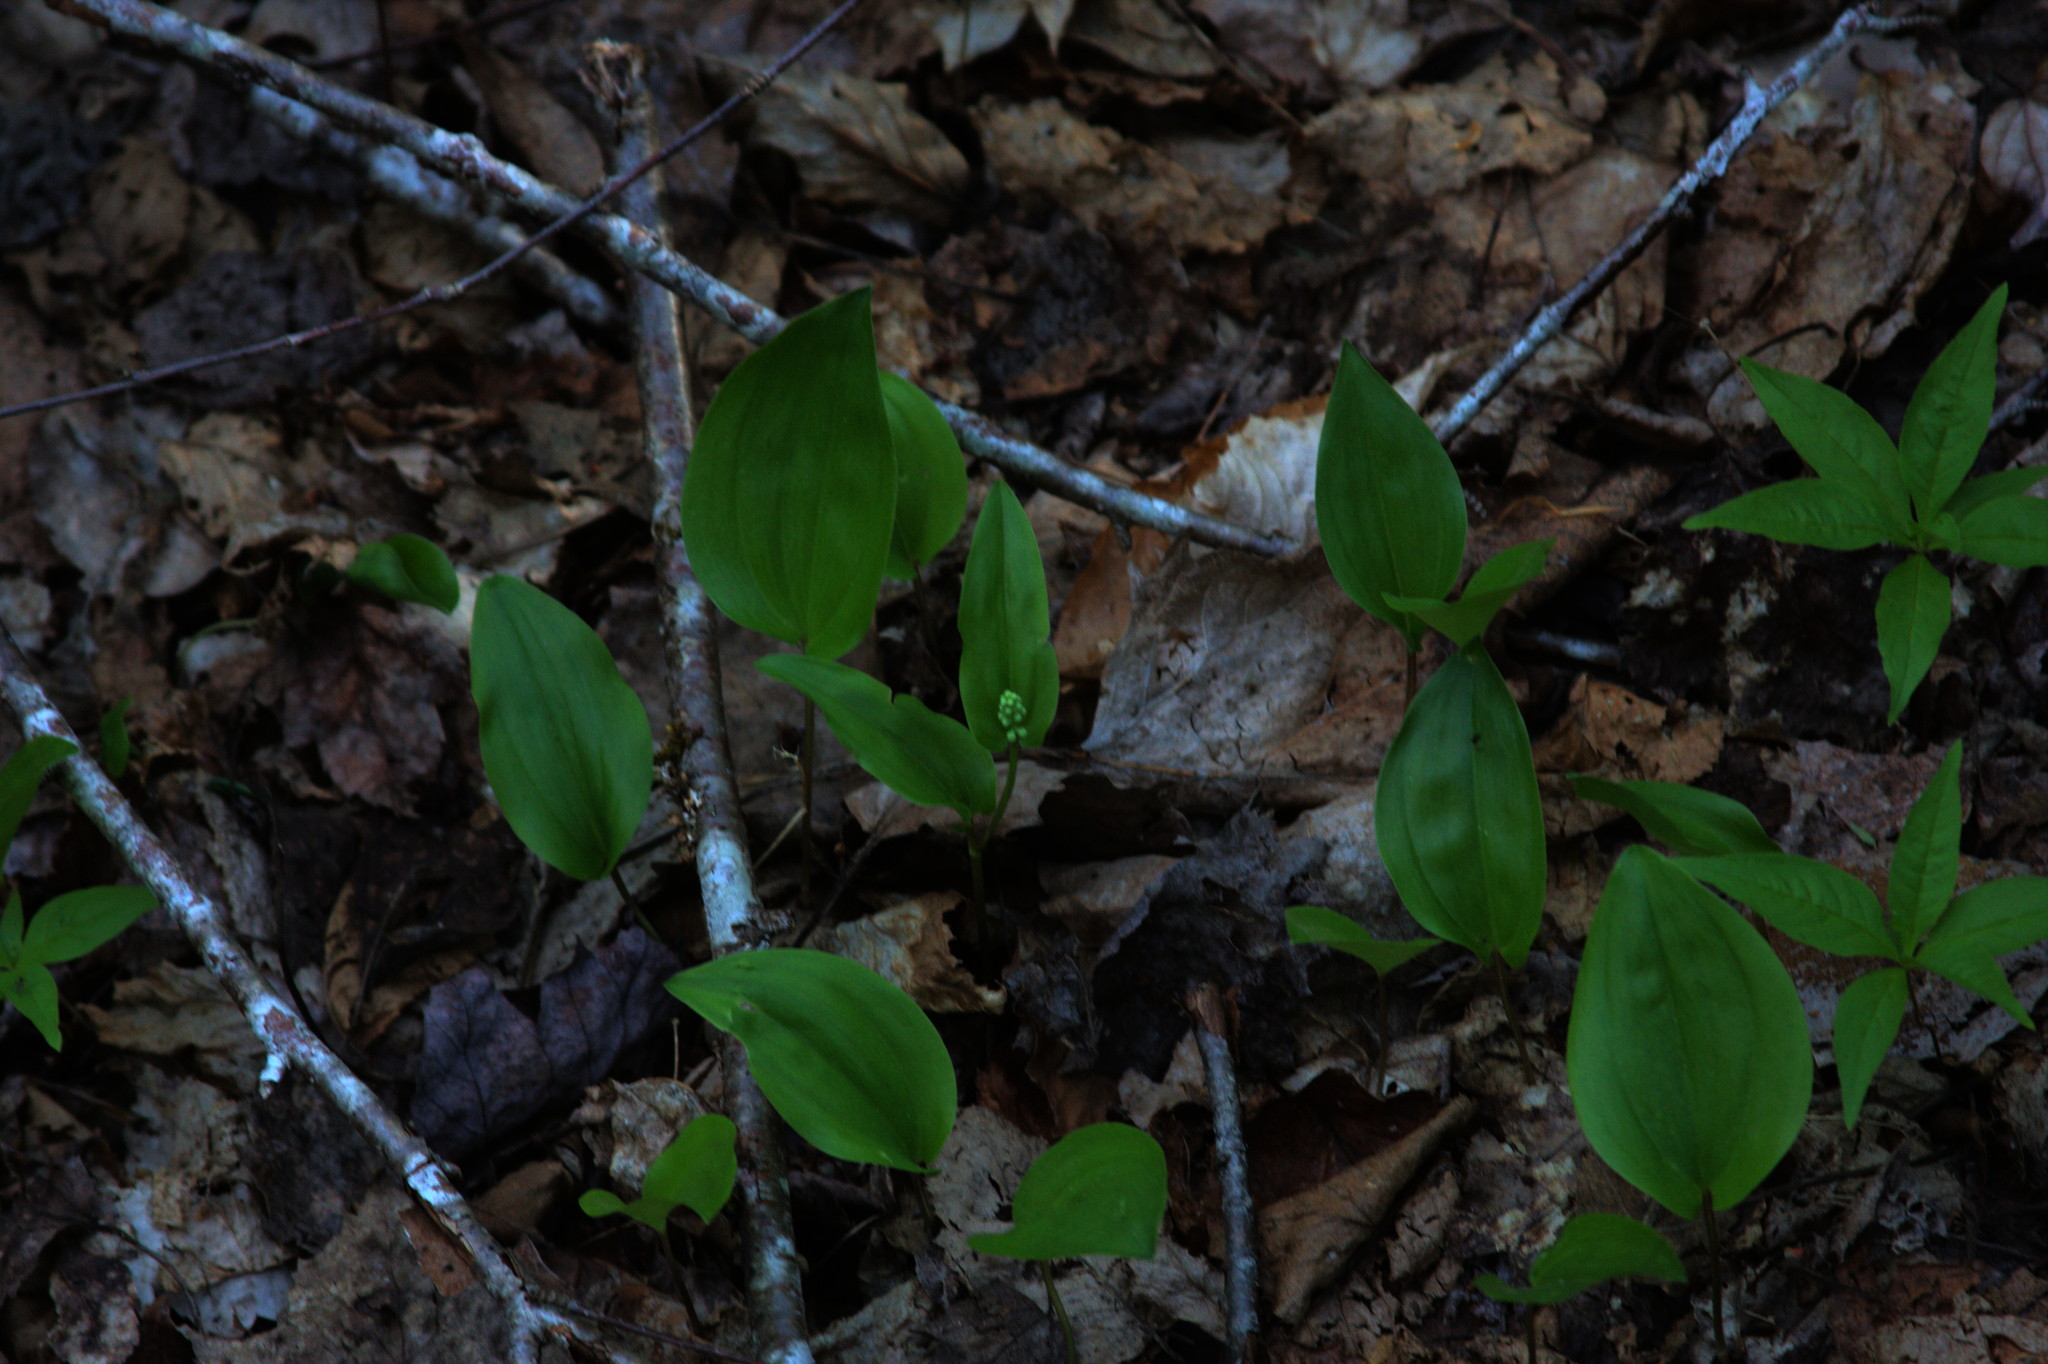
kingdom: Plantae
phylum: Tracheophyta
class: Liliopsida
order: Asparagales
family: Asparagaceae
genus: Maianthemum
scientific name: Maianthemum canadense
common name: False lily-of-the-valley
